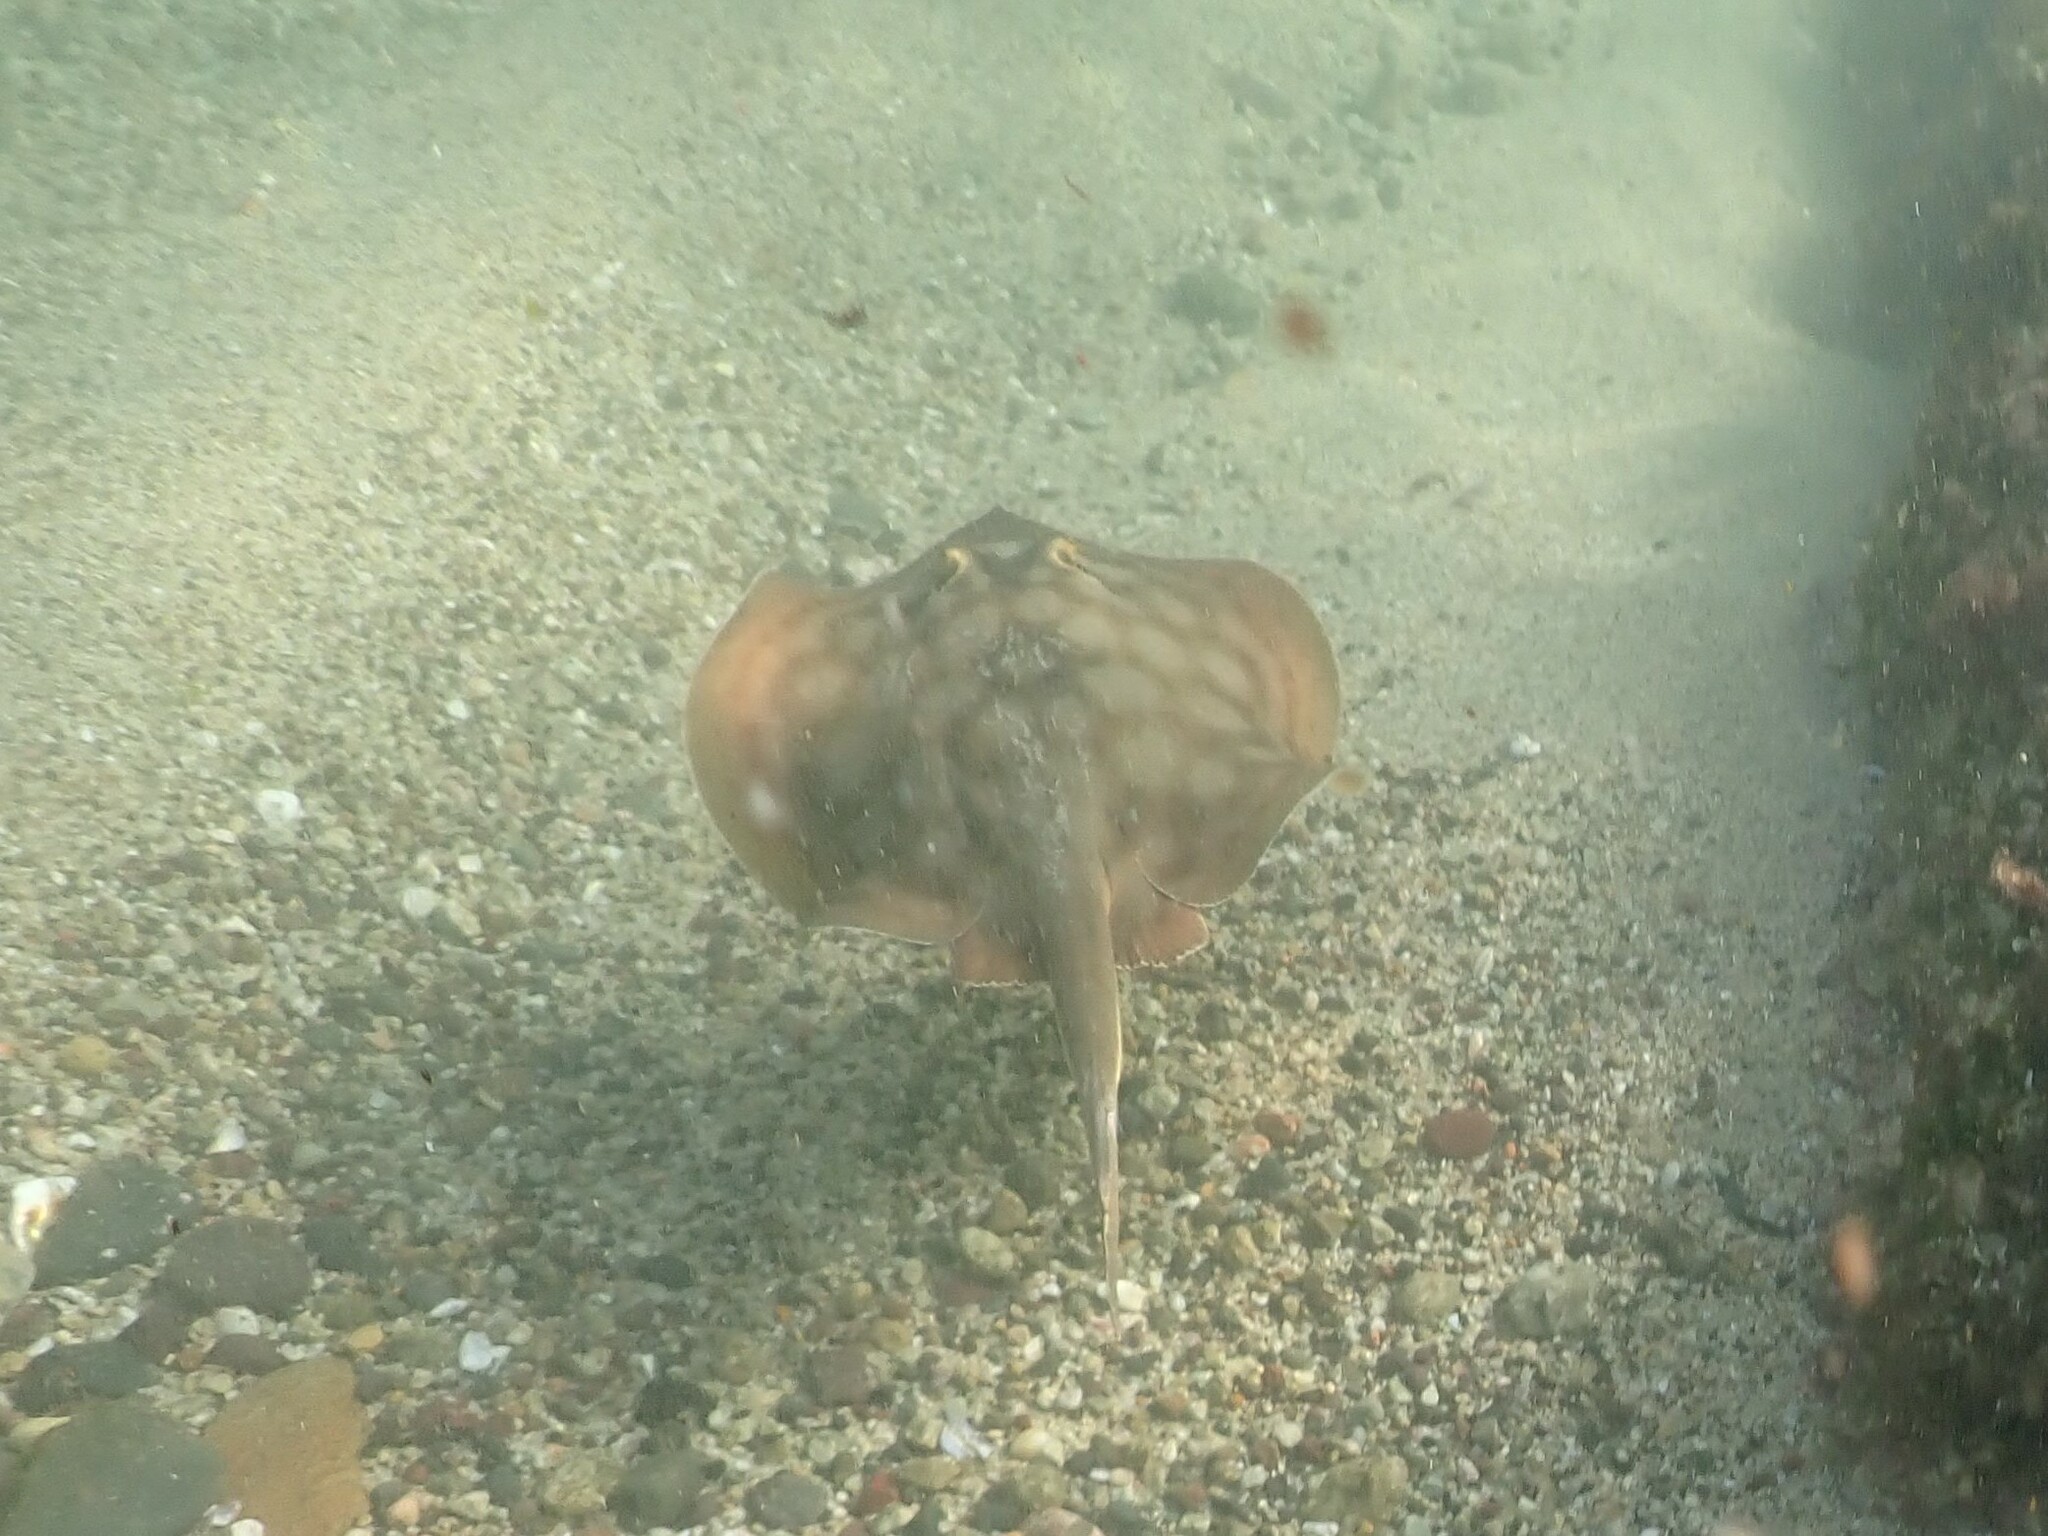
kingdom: Animalia
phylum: Chordata
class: Elasmobranchii
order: Myliobatiformes
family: Urotrygonidae
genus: Urobatis
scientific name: Urobatis concentricus
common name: Bull's-eye stingray
